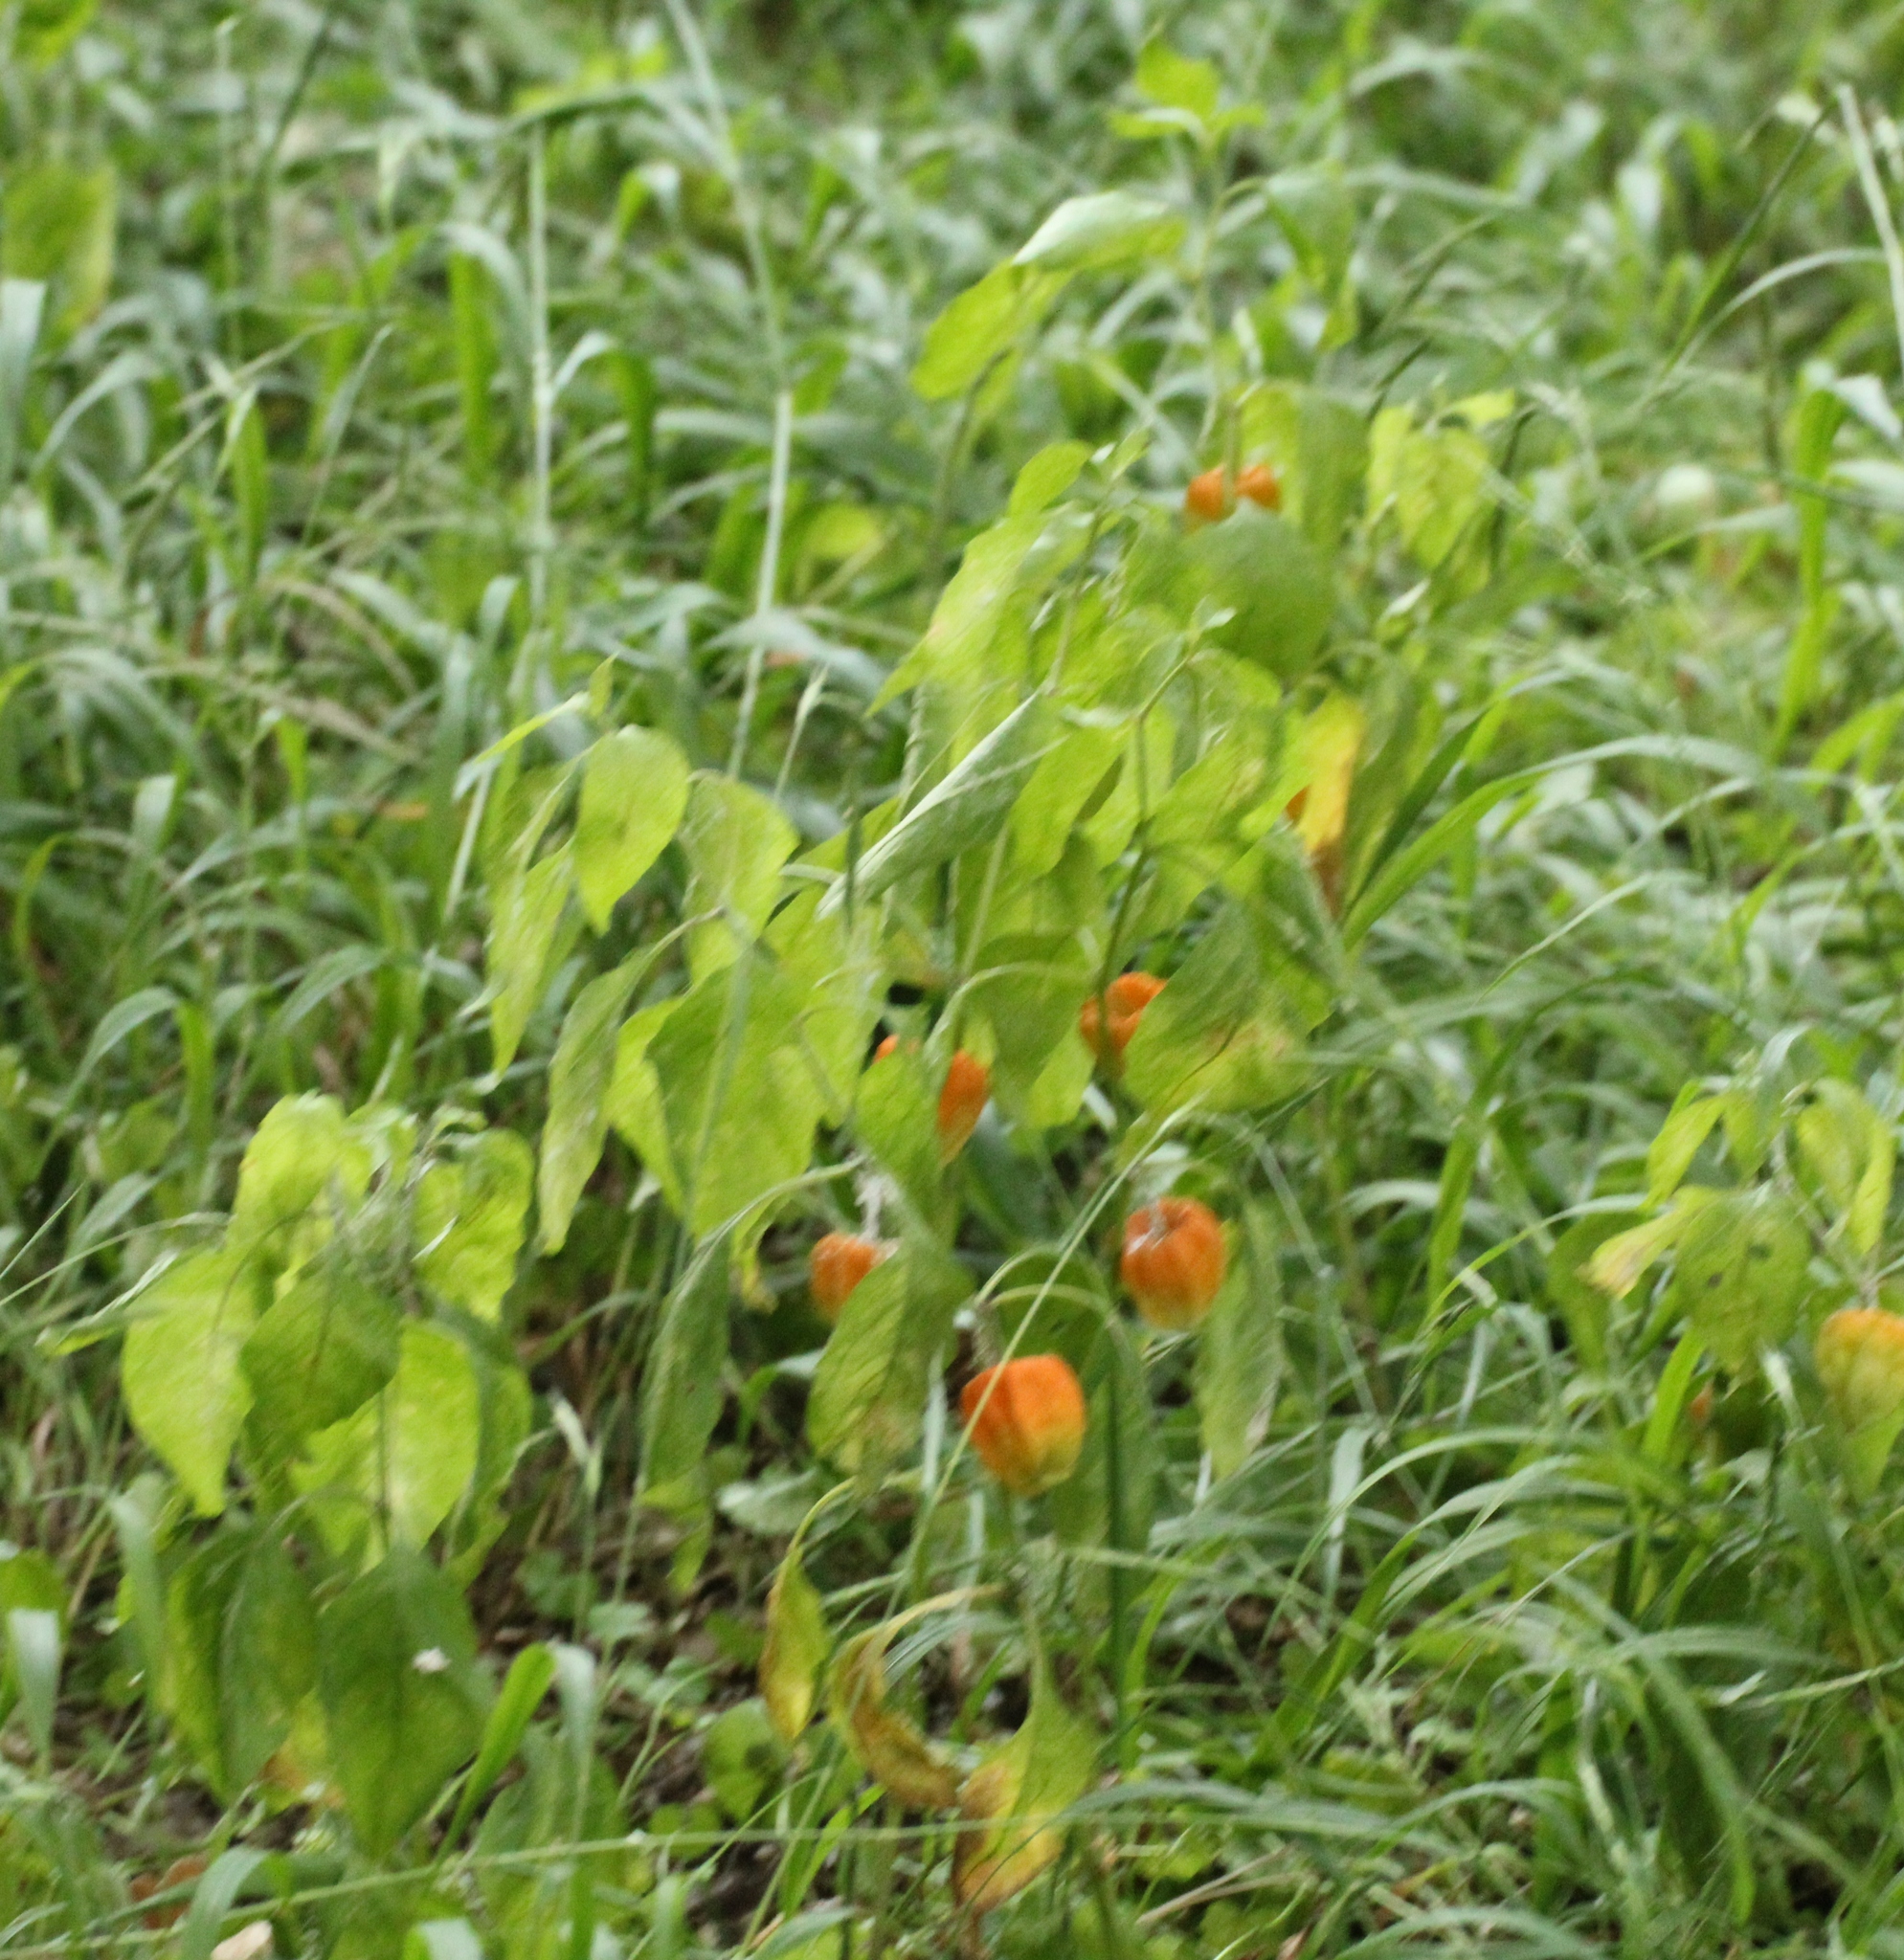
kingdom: Plantae
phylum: Tracheophyta
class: Magnoliopsida
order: Solanales
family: Solanaceae
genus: Alkekengi
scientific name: Alkekengi officinarum
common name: Japanese-lantern
